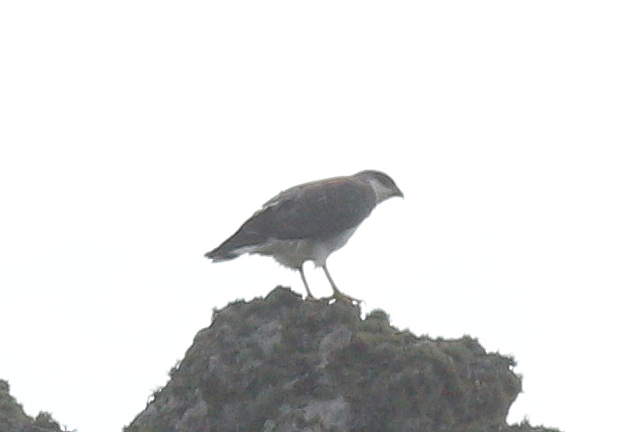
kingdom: Animalia
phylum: Chordata
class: Aves
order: Accipitriformes
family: Accipitridae
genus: Buteo
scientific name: Buteo polyosoma
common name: Variable hawk
